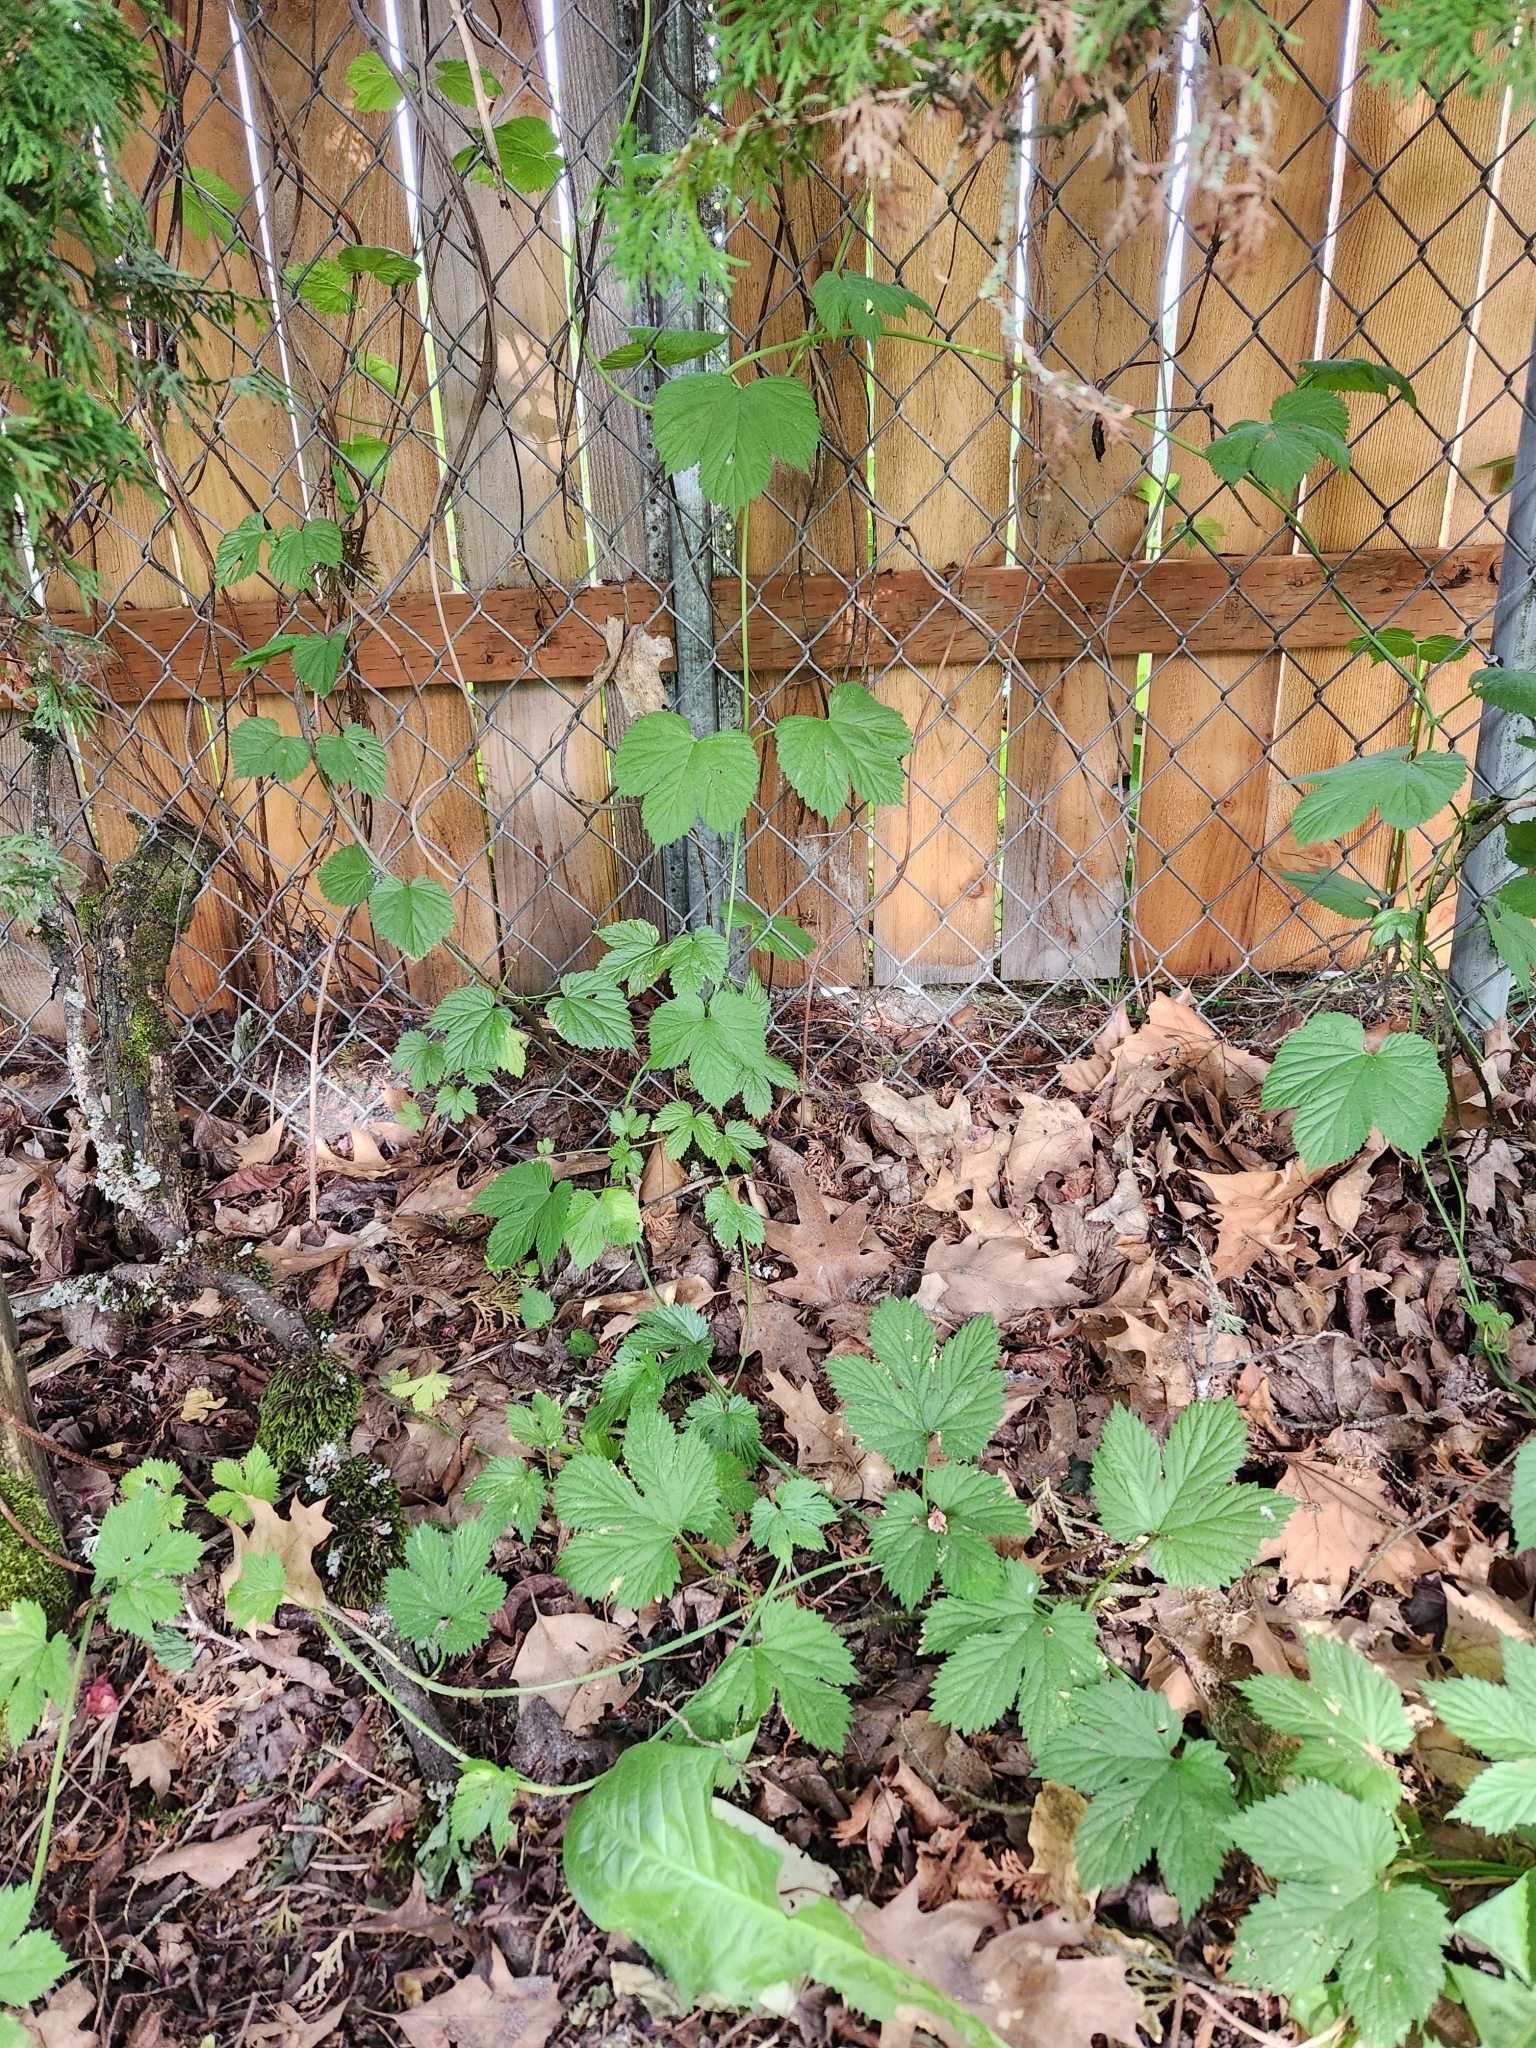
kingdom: Plantae
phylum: Tracheophyta
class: Magnoliopsida
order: Rosales
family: Cannabaceae
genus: Humulus
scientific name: Humulus lupulus
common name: Hop
